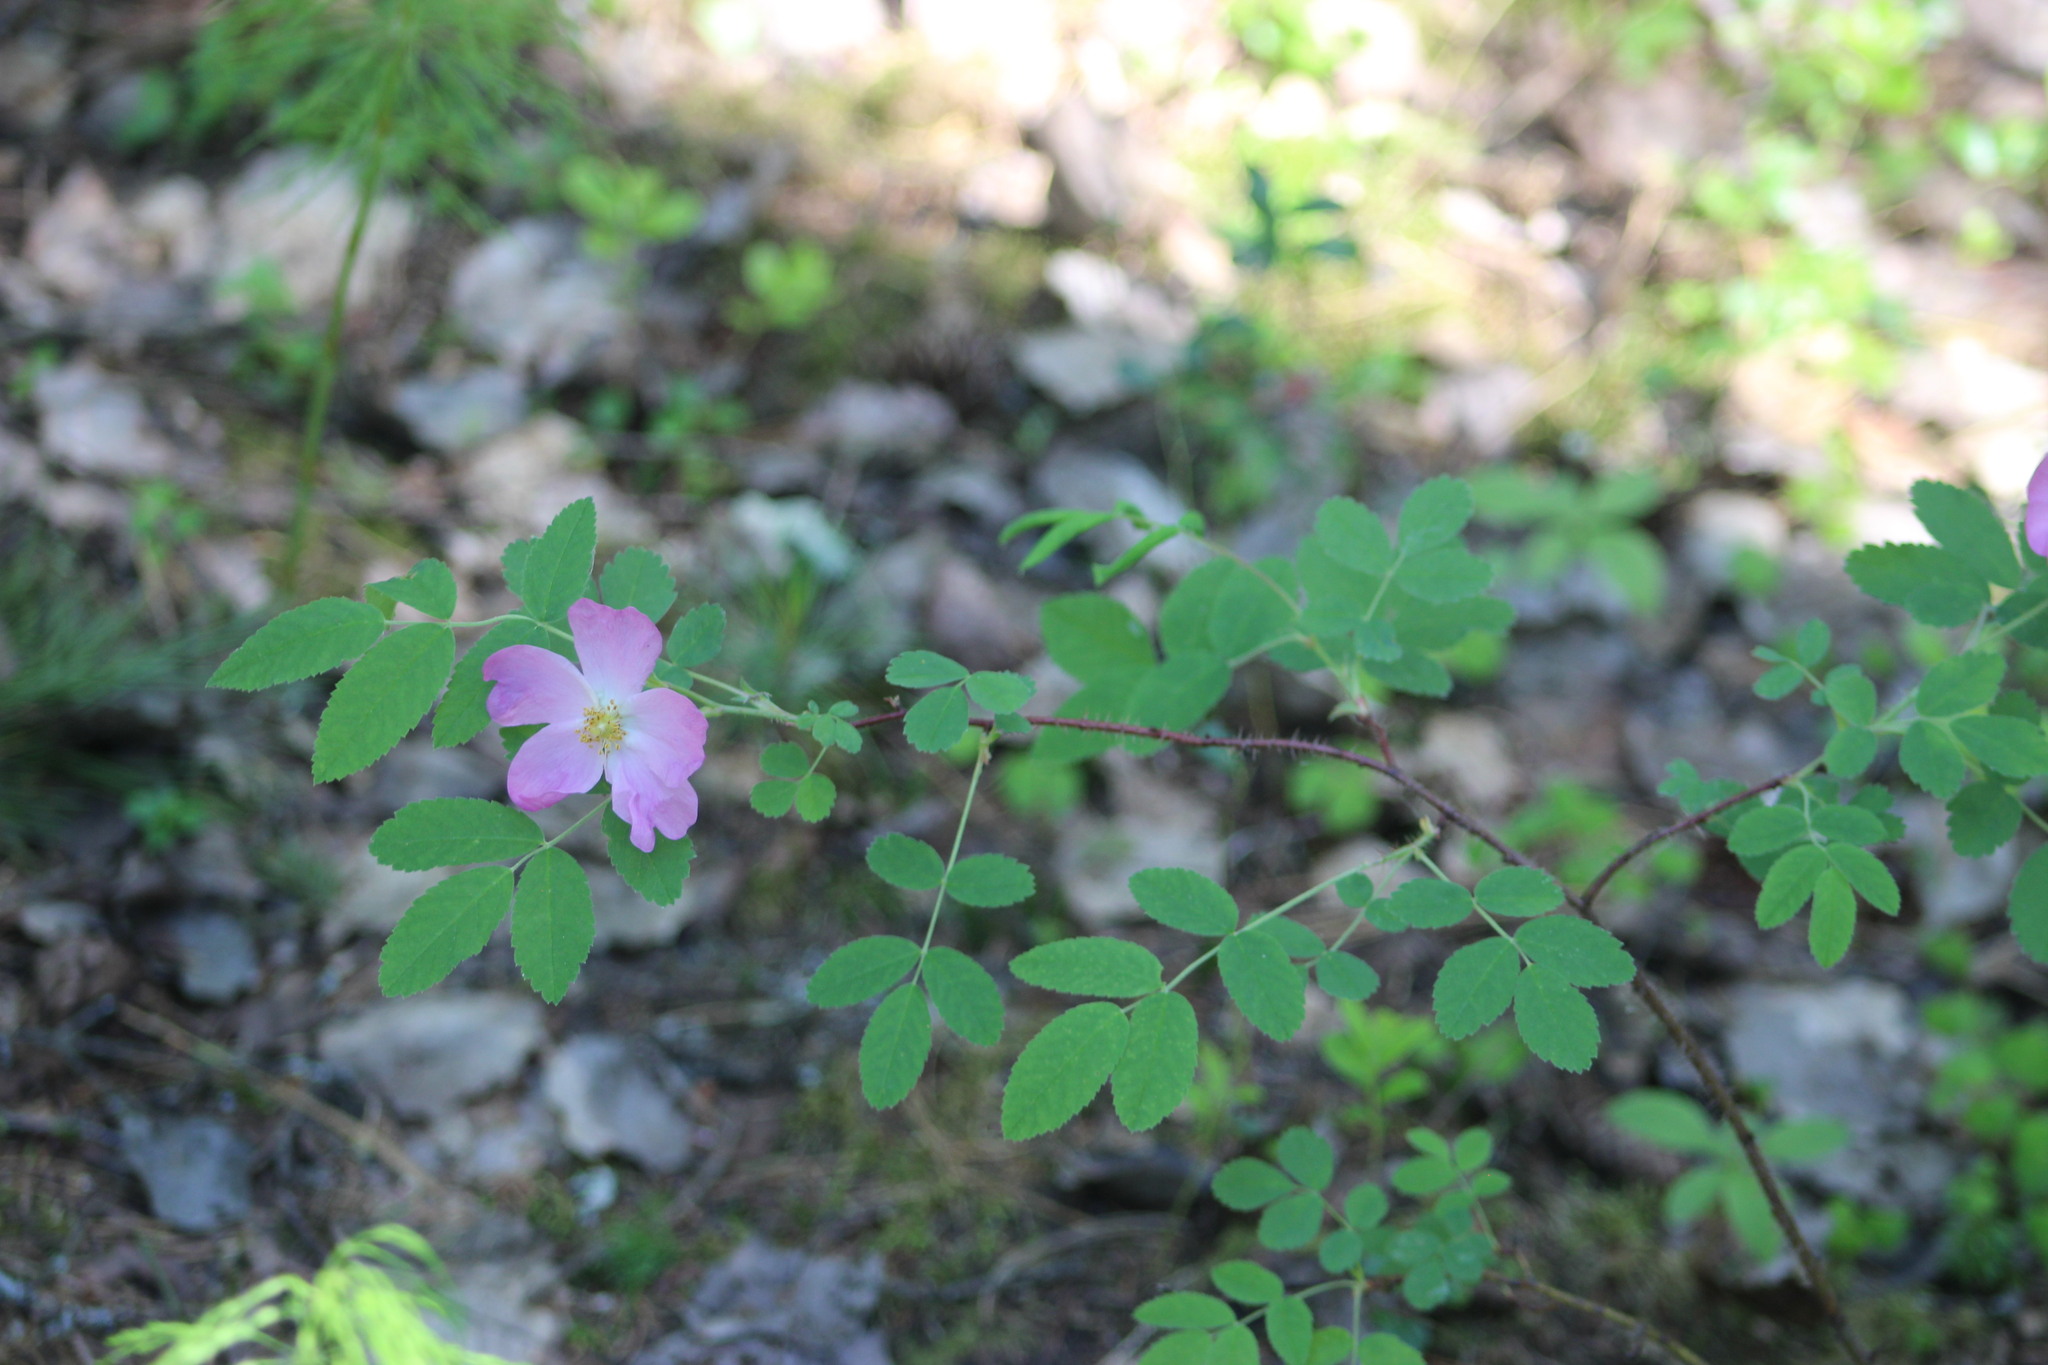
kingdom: Plantae
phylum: Tracheophyta
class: Magnoliopsida
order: Rosales
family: Rosaceae
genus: Rosa
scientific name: Rosa acicularis
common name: Prickly rose
